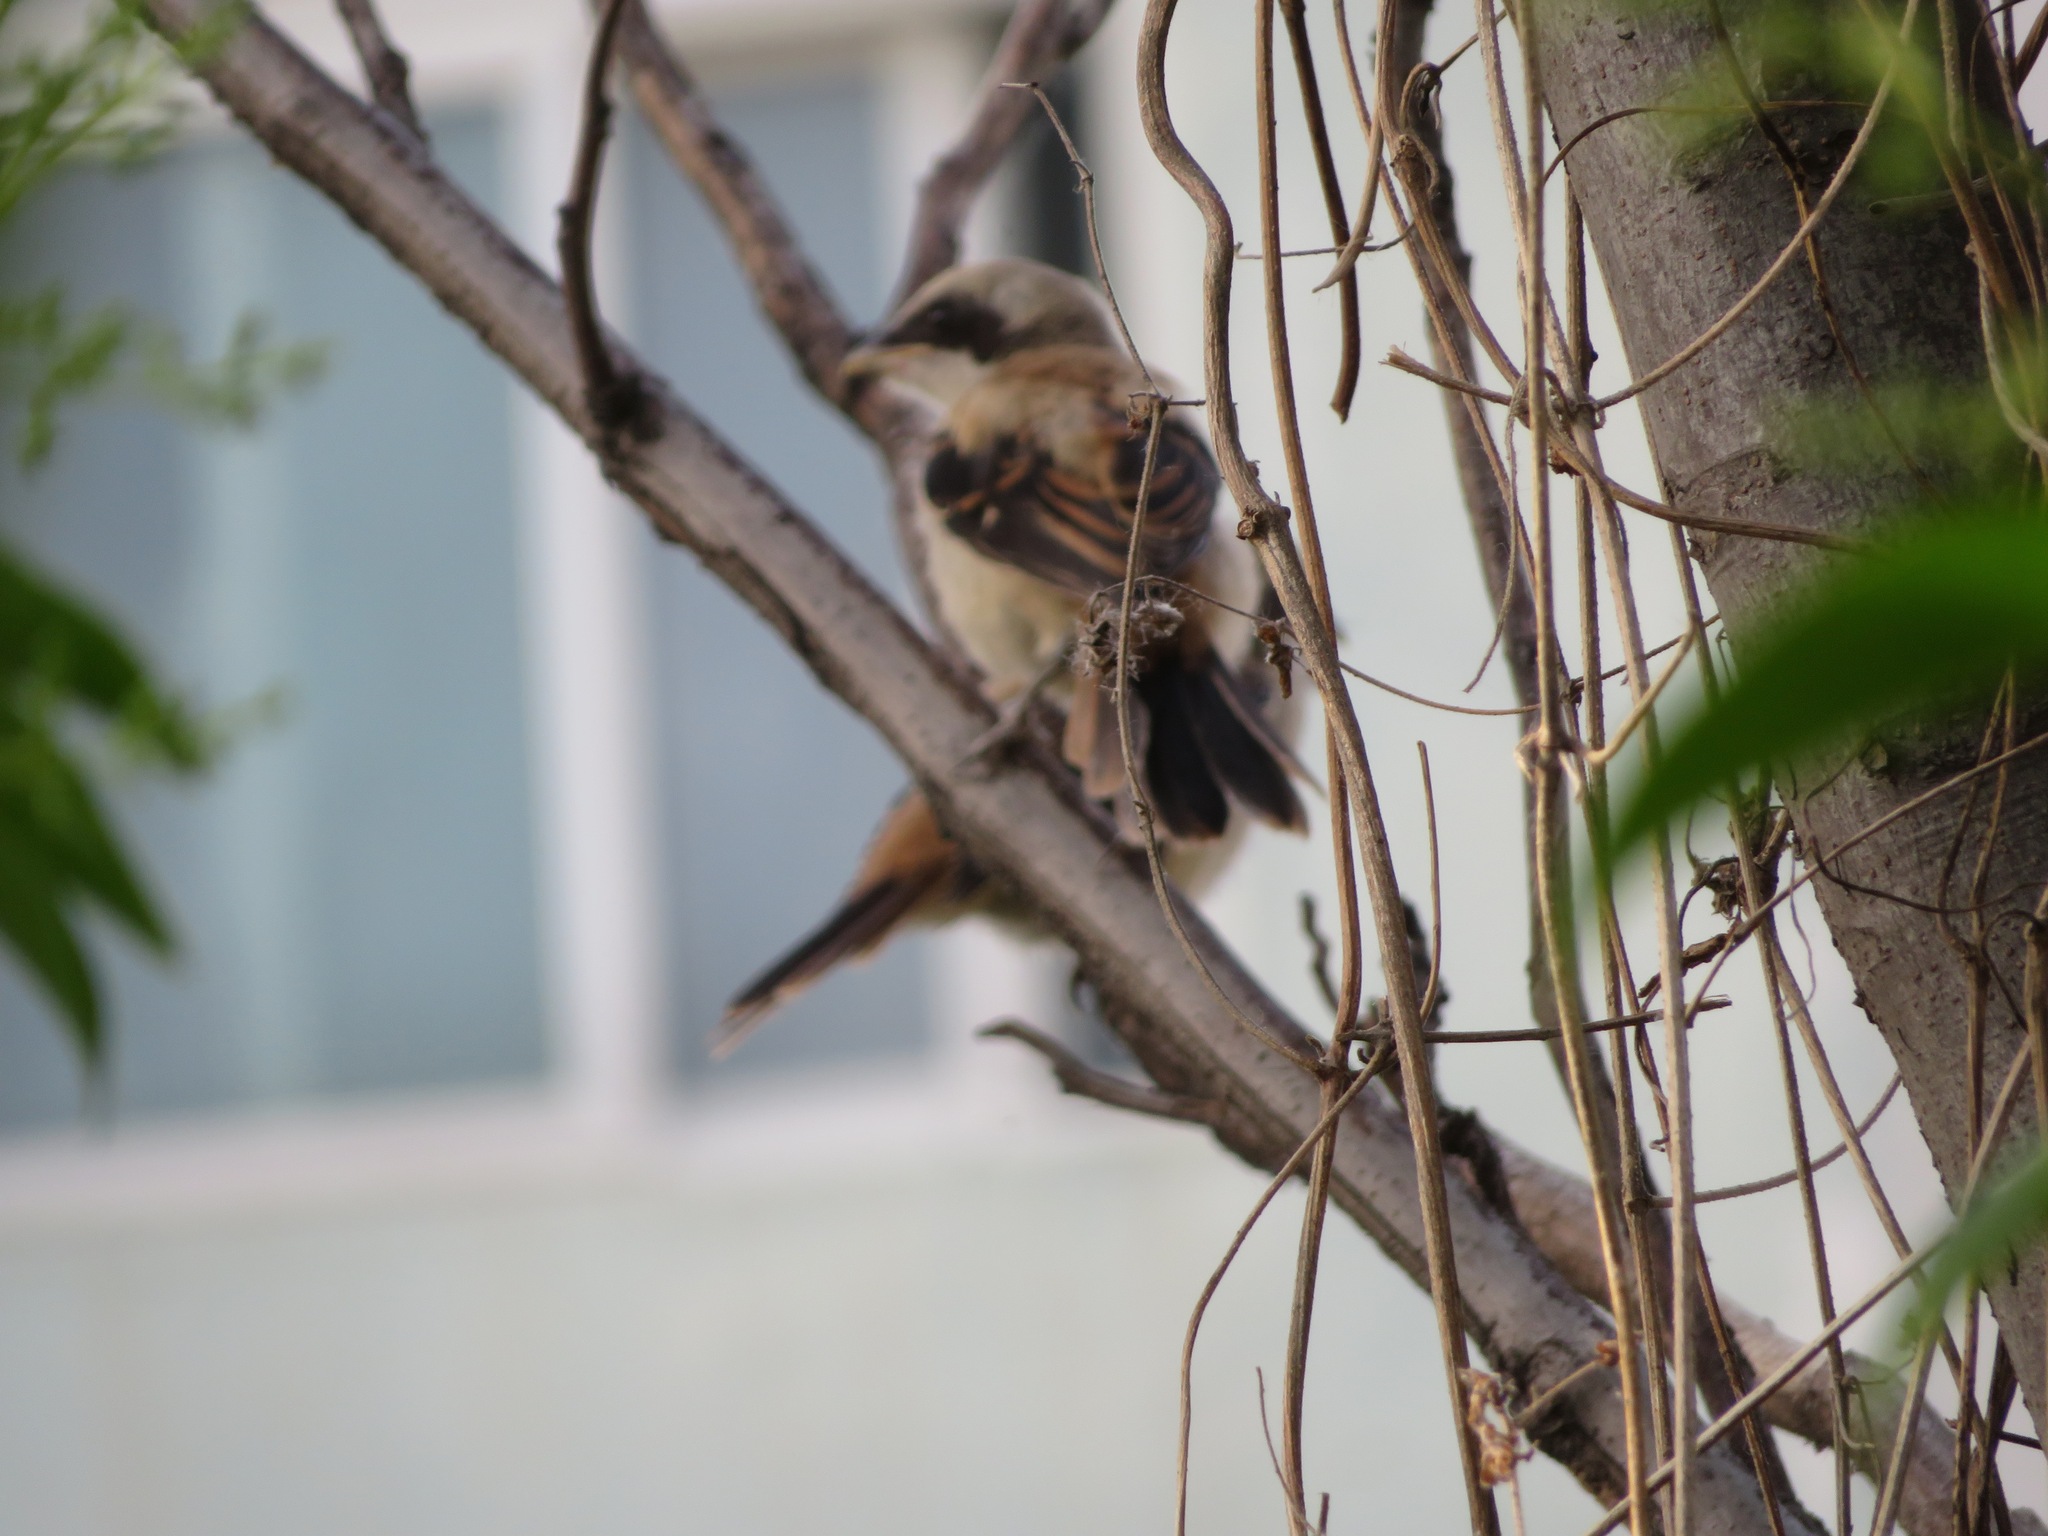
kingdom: Animalia
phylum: Chordata
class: Aves
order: Passeriformes
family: Laniidae
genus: Lanius
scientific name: Lanius schach
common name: Long-tailed shrike
